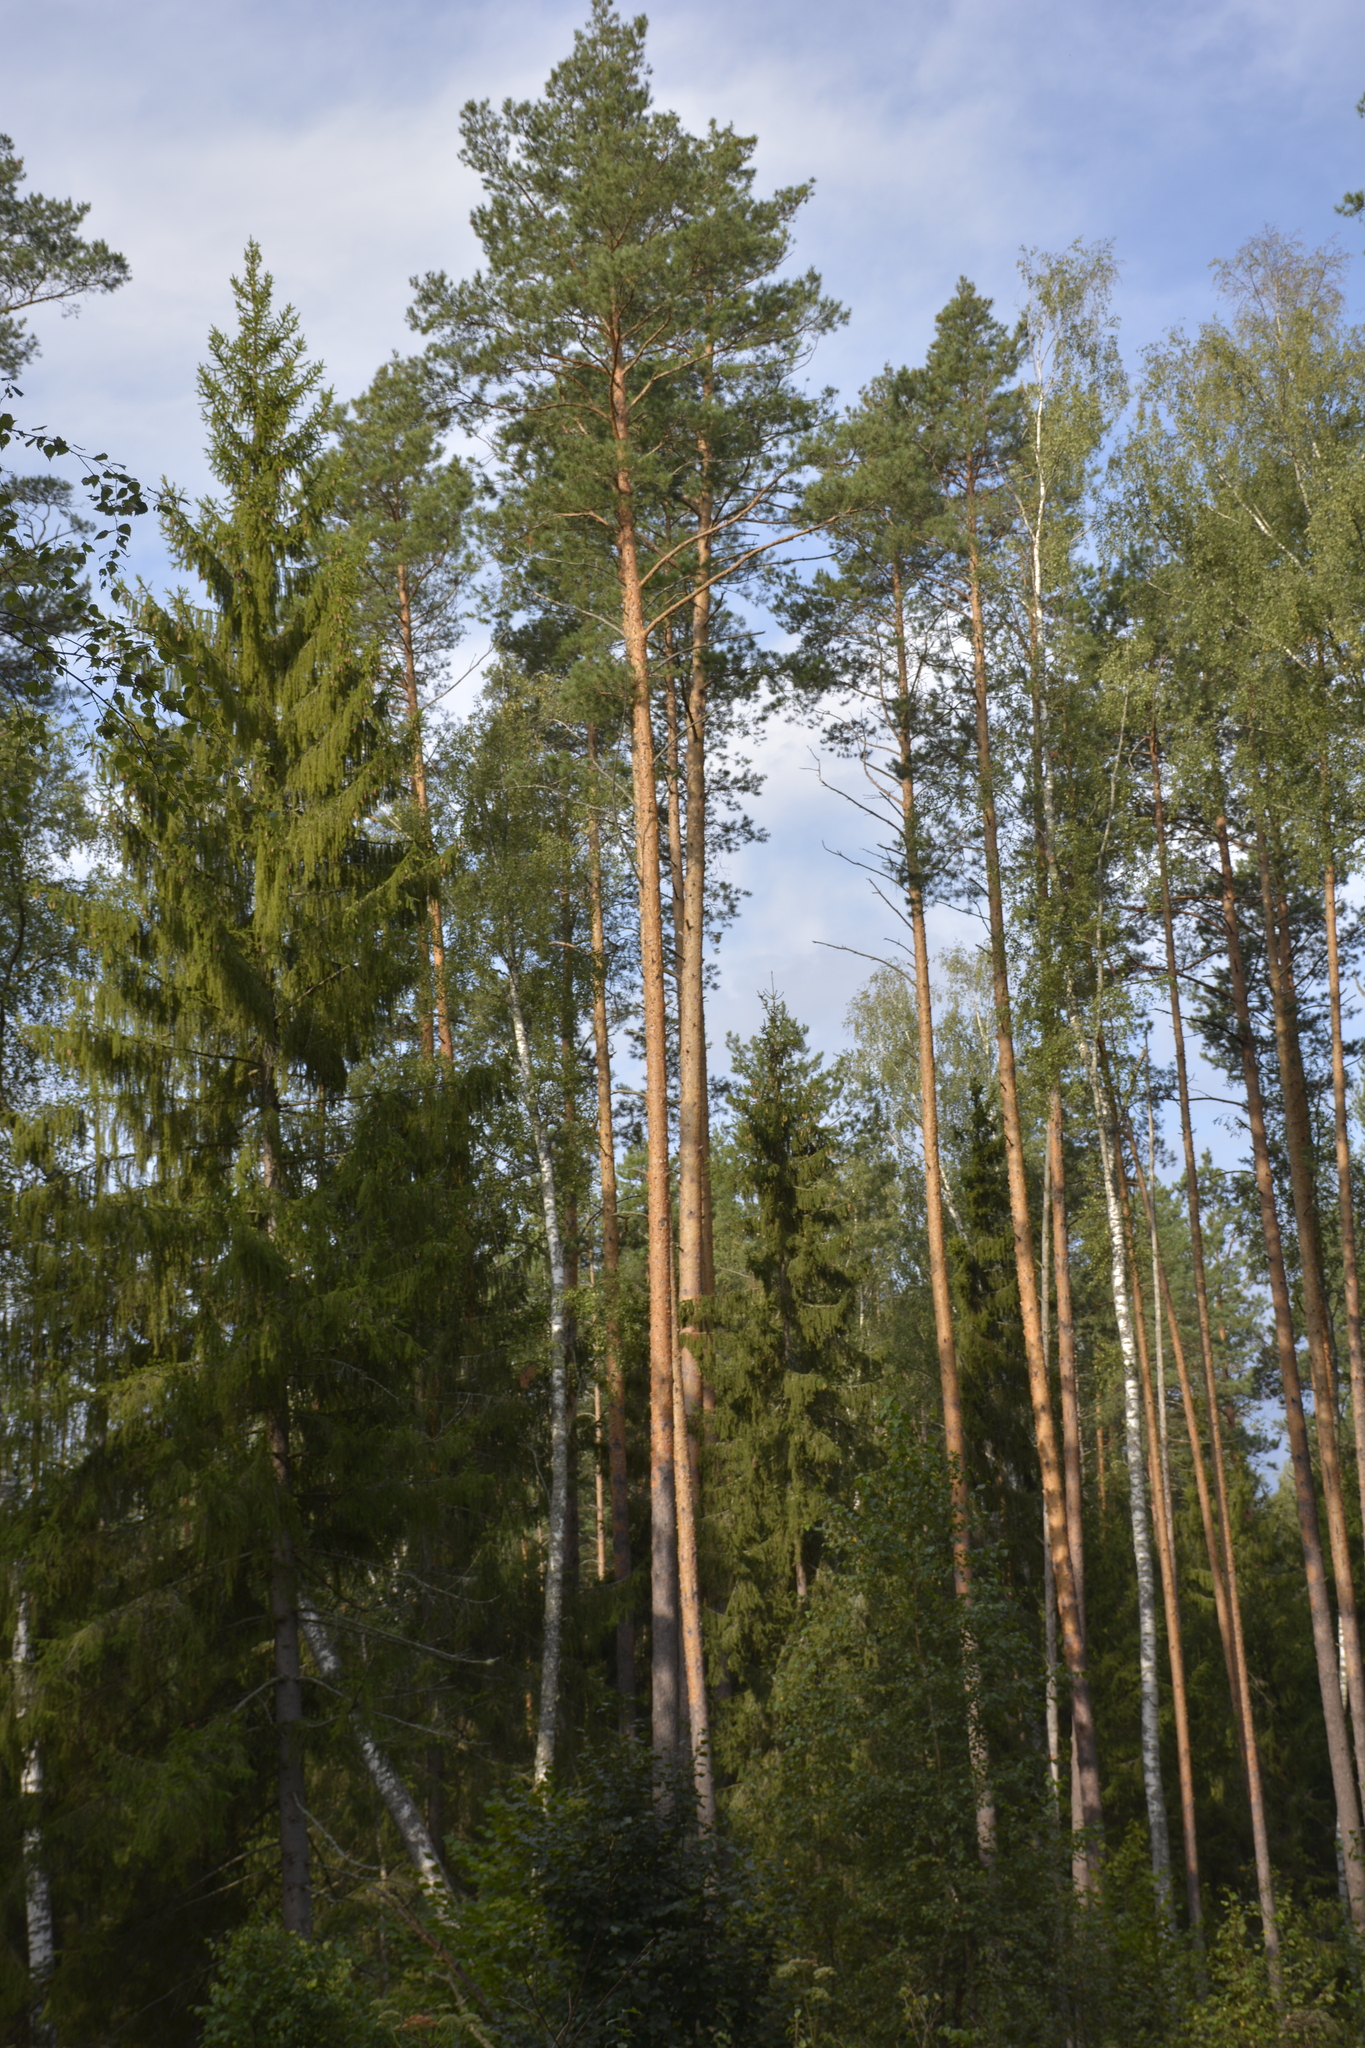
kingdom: Plantae
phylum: Tracheophyta
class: Pinopsida
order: Pinales
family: Pinaceae
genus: Pinus
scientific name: Pinus sylvestris
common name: Scots pine
